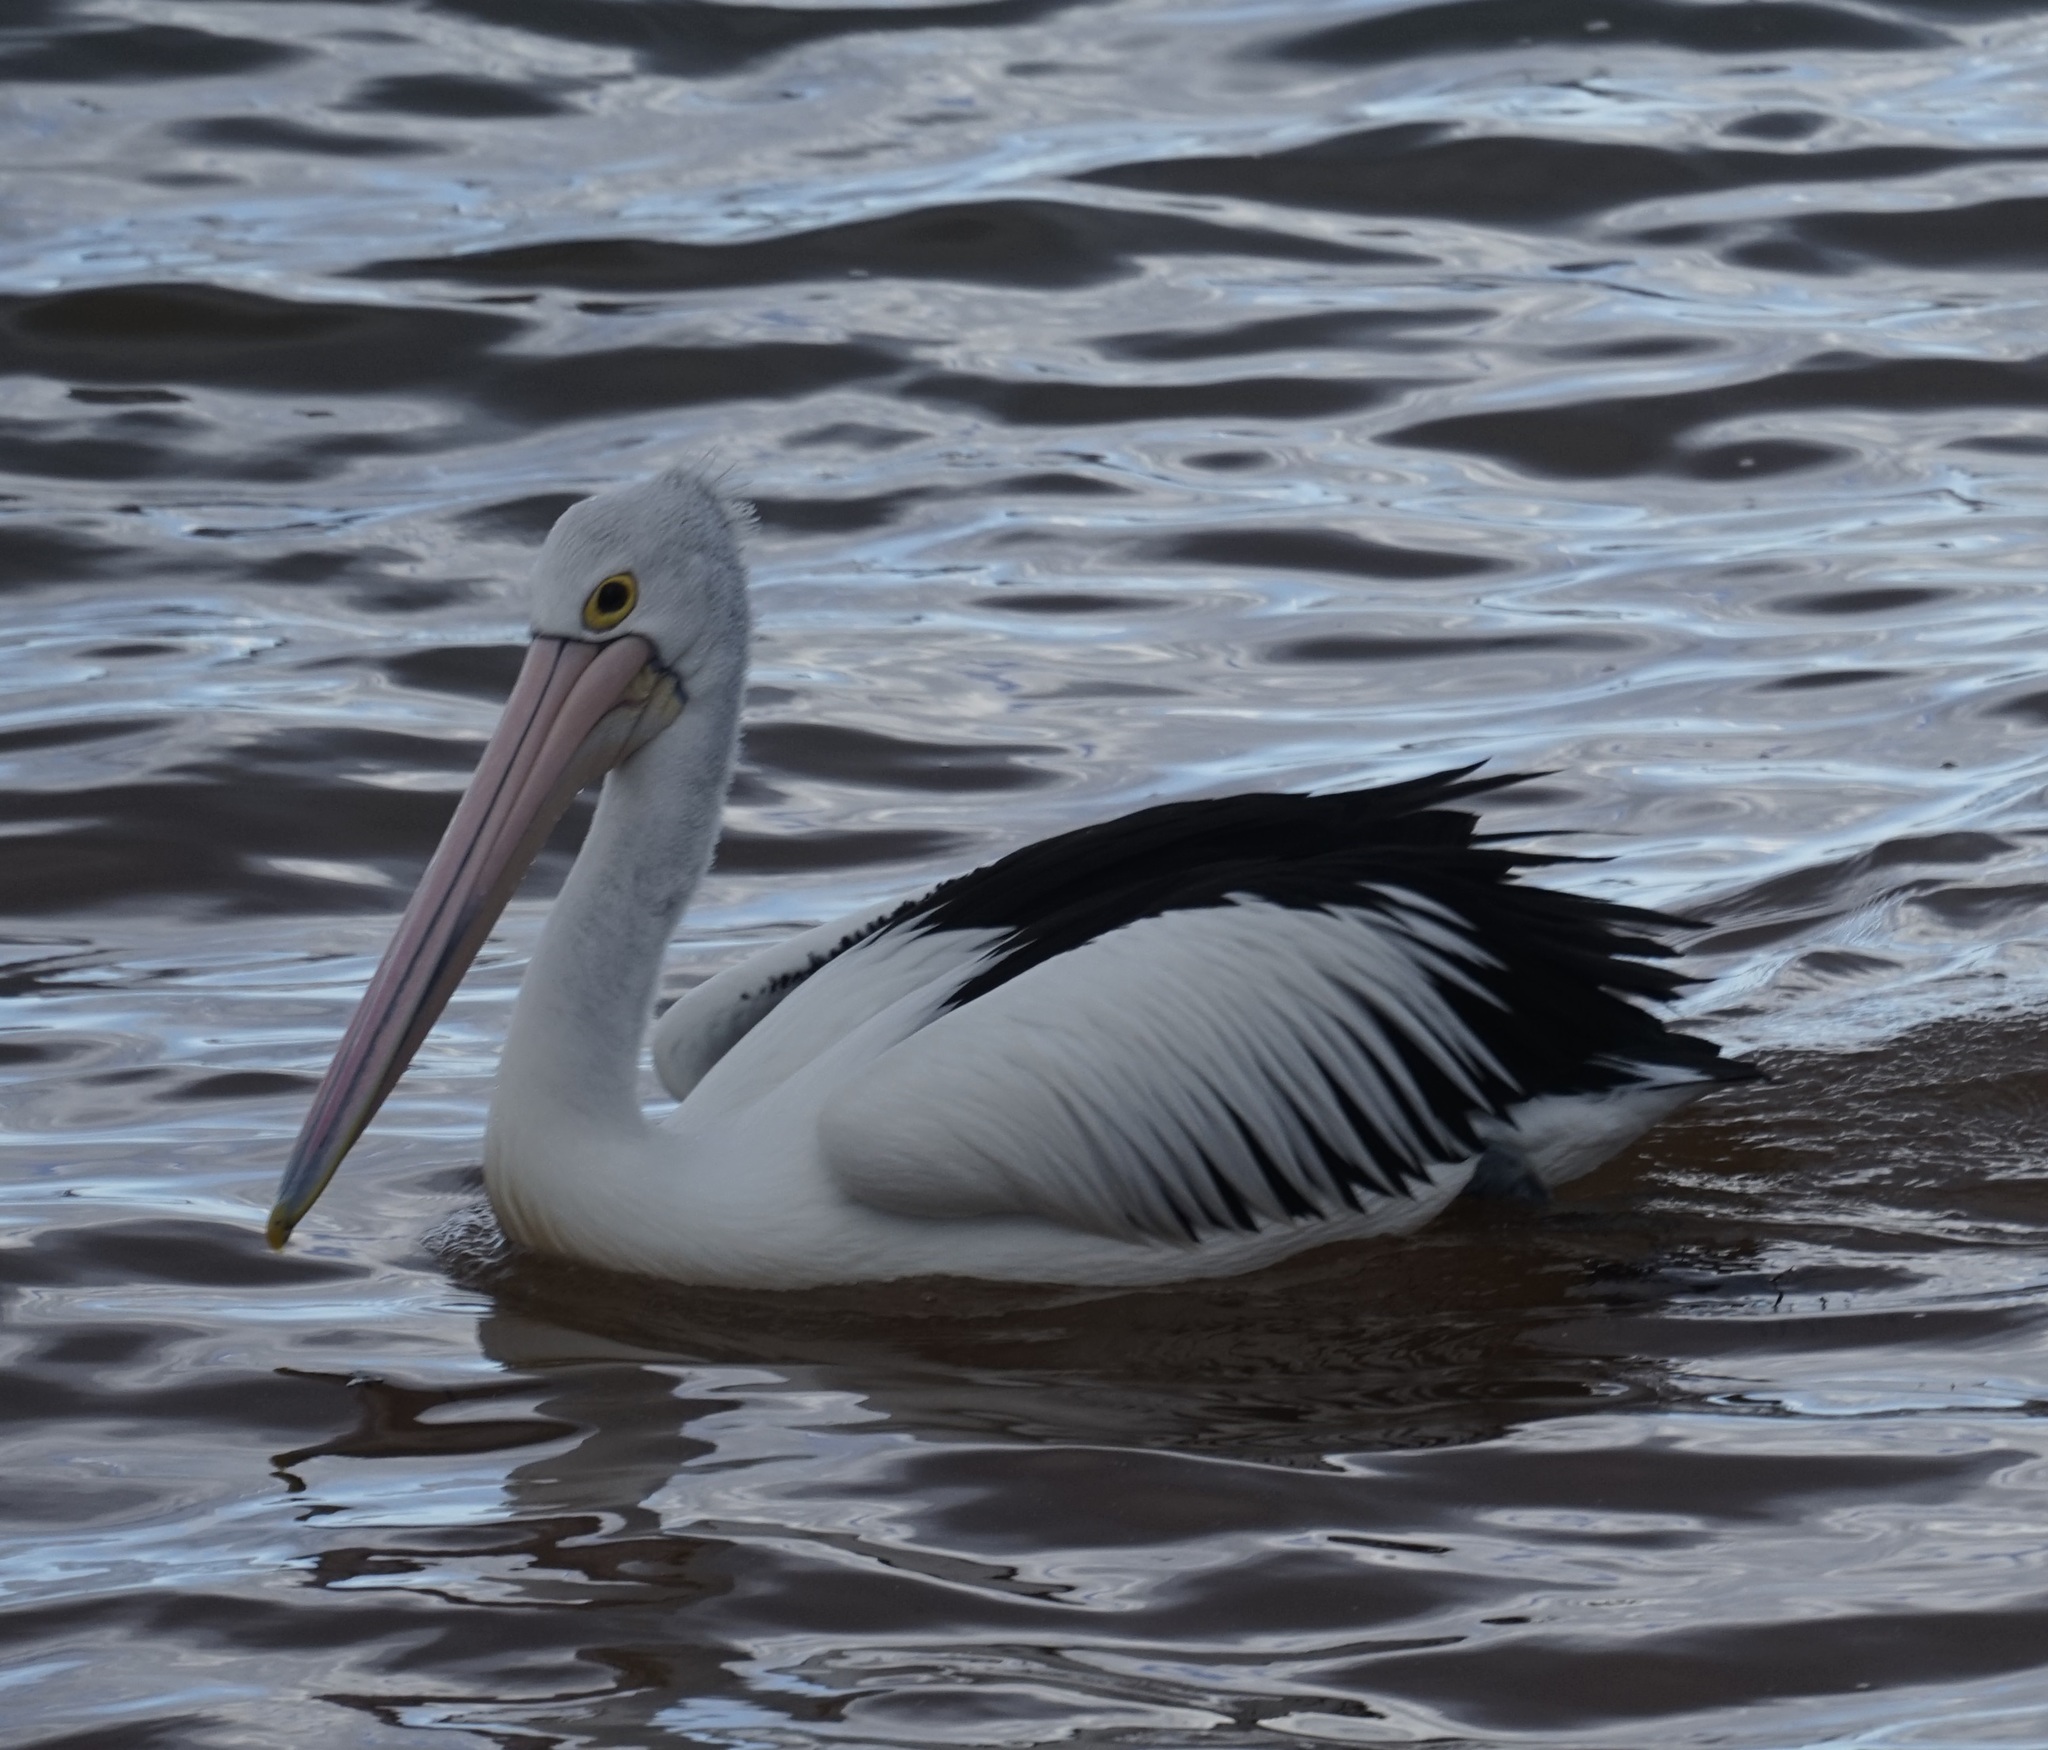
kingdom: Animalia
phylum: Chordata
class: Aves
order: Pelecaniformes
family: Pelecanidae
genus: Pelecanus
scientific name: Pelecanus conspicillatus
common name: Australian pelican
